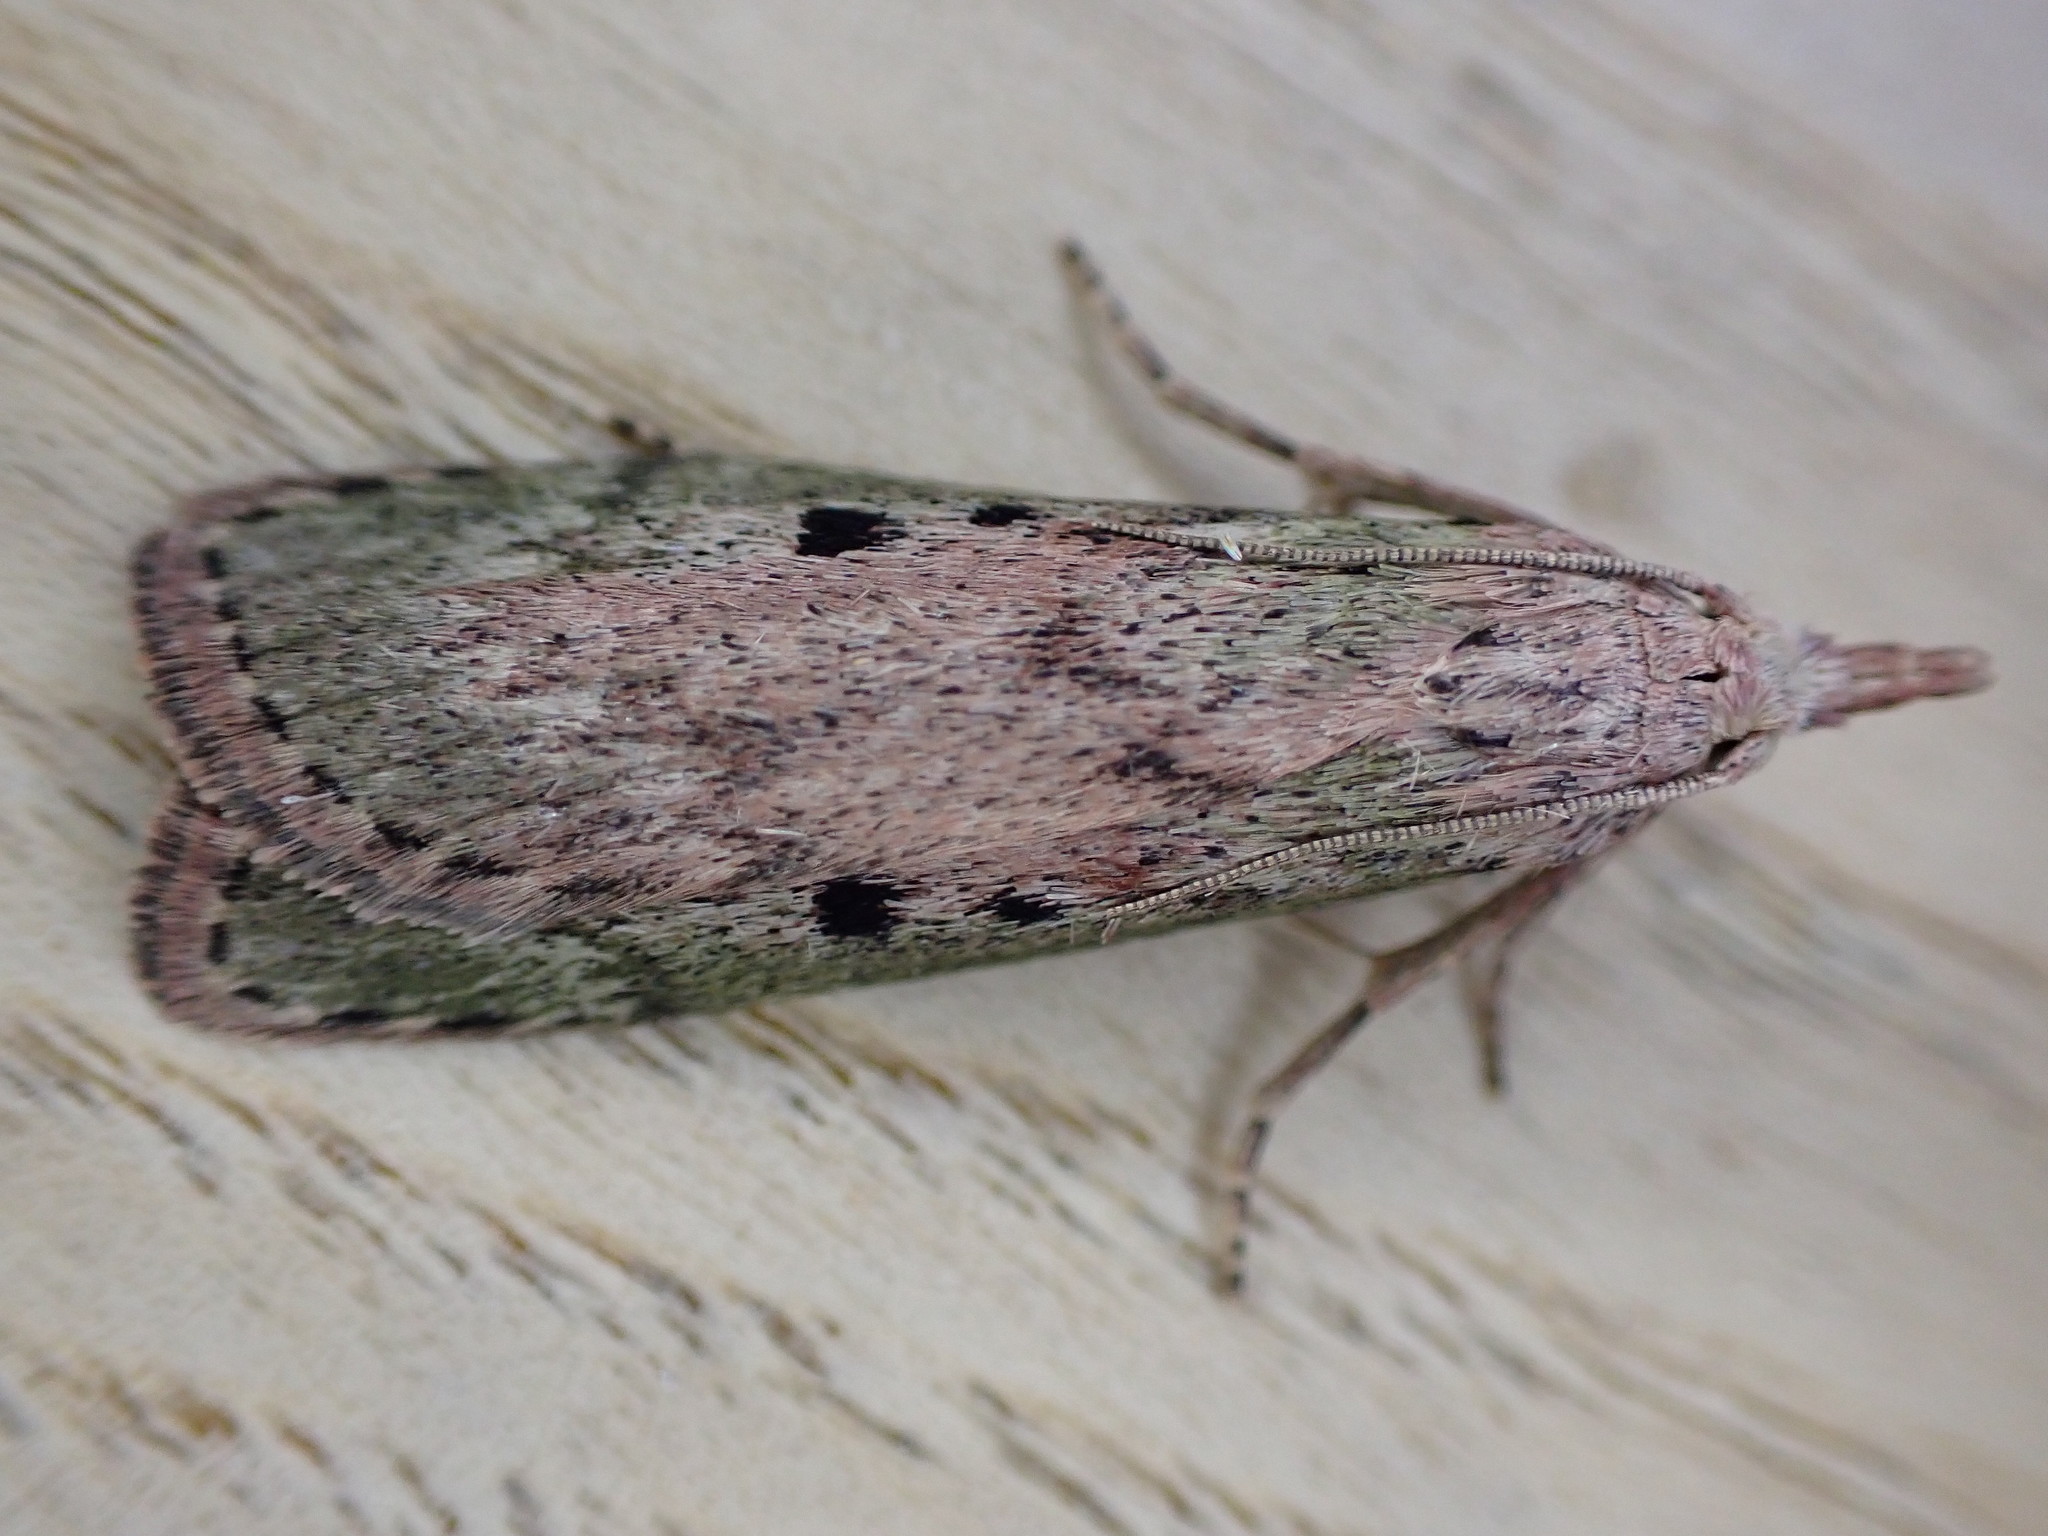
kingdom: Animalia
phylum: Arthropoda
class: Insecta
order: Lepidoptera
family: Pyralidae
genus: Aphomia
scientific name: Aphomia sociella
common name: Bee moth
